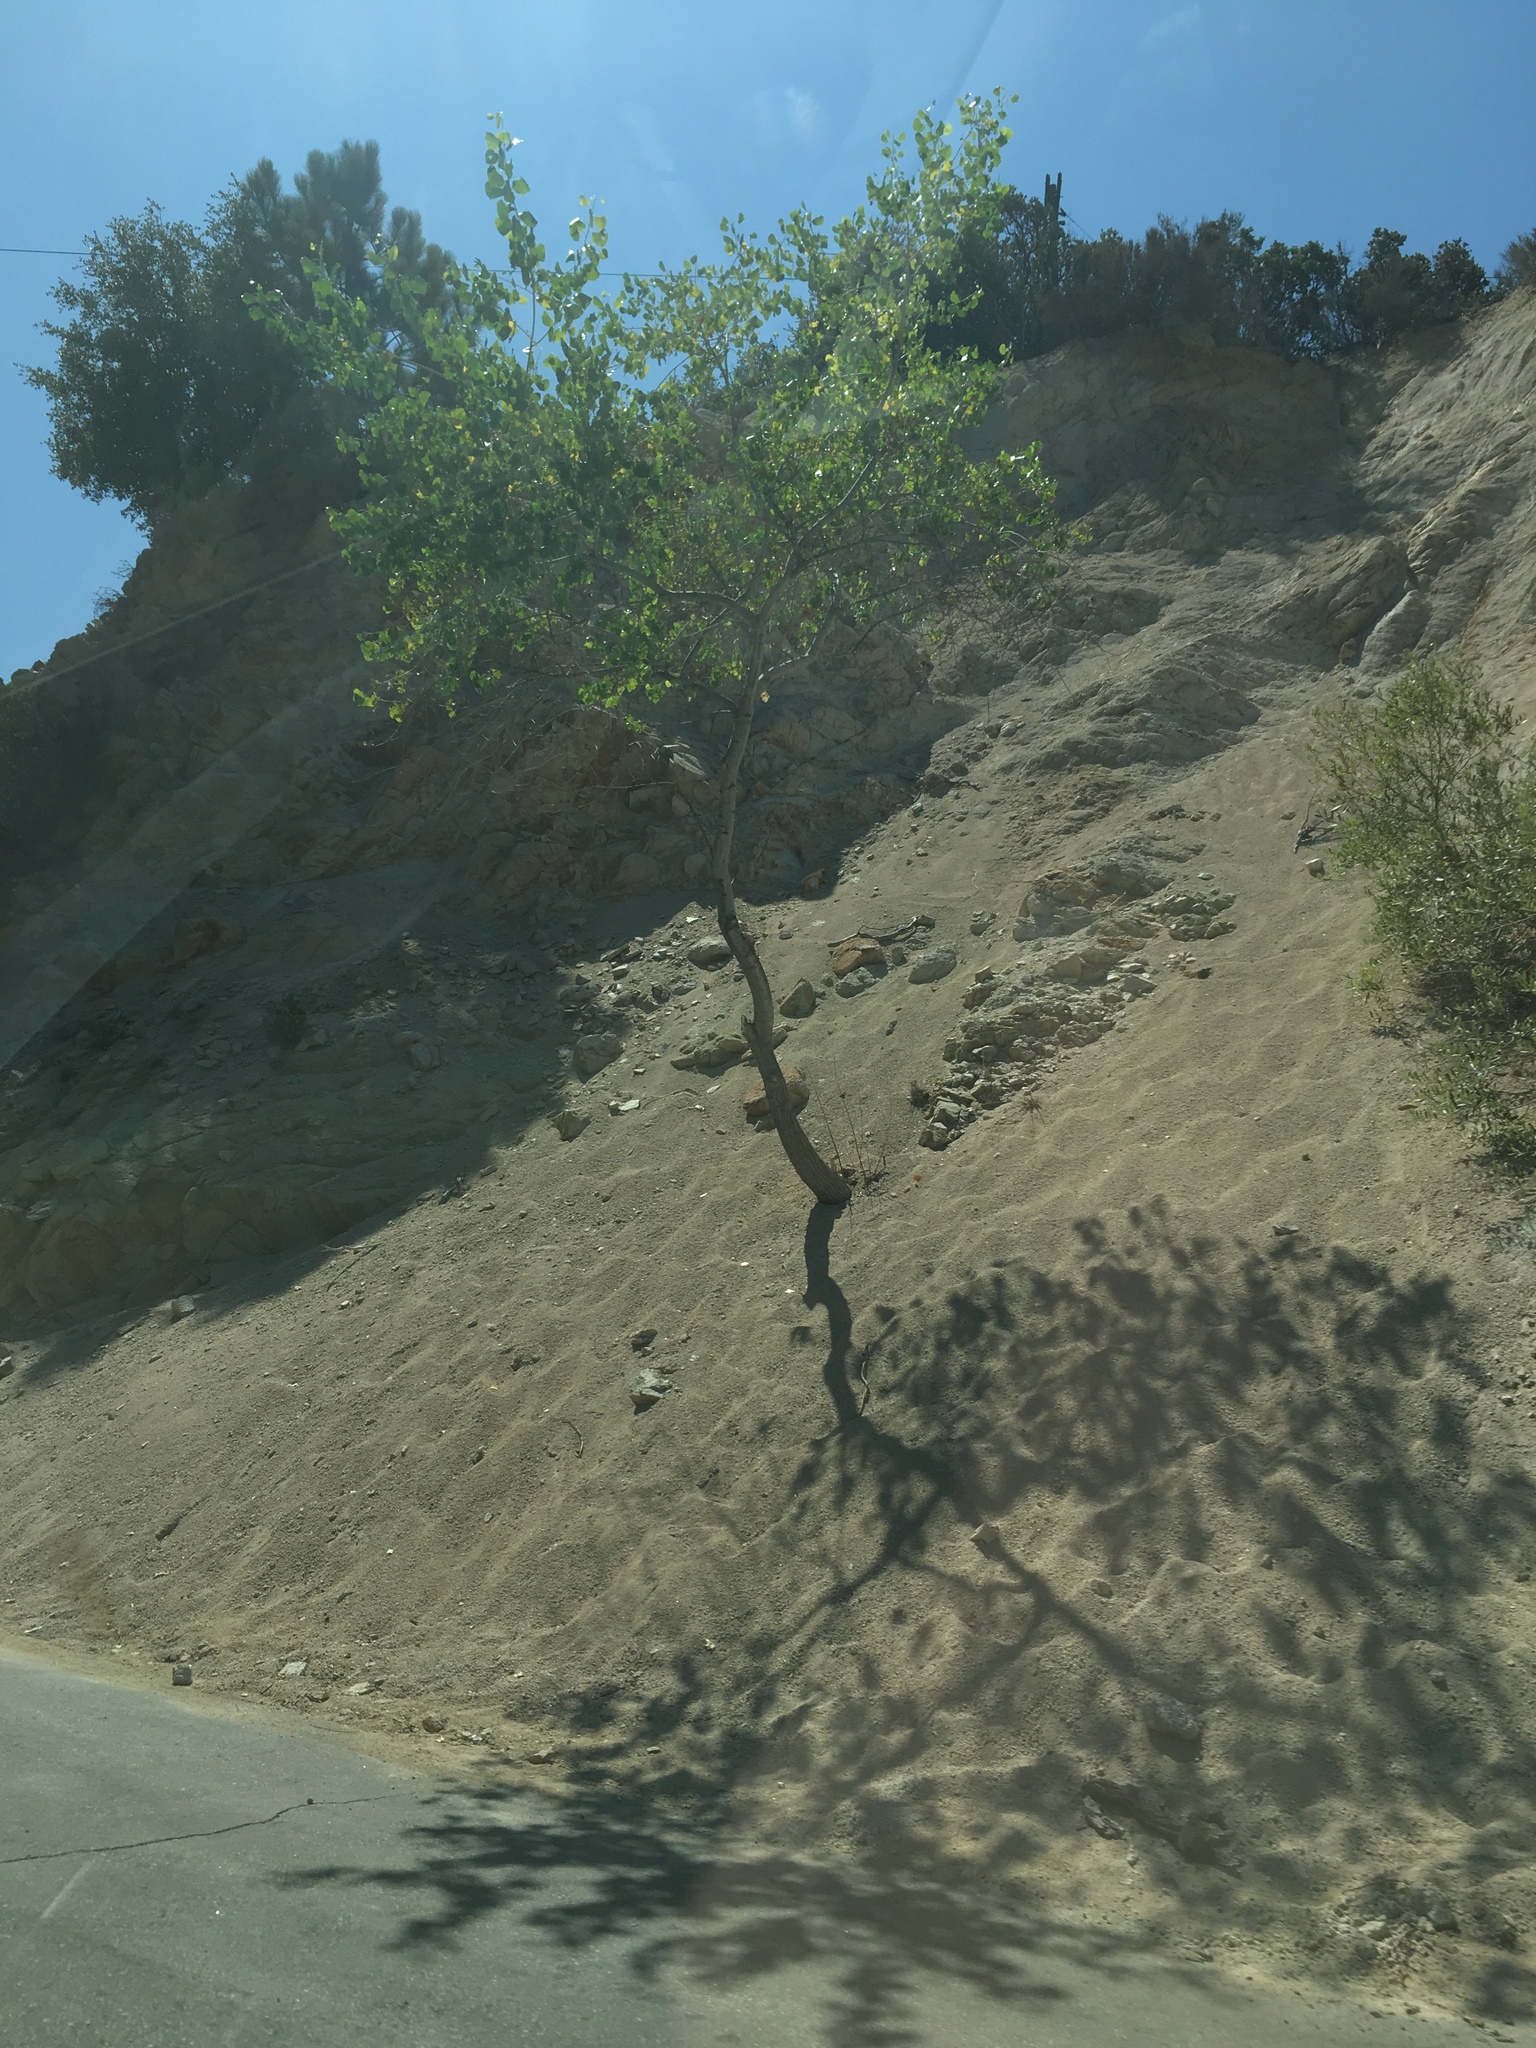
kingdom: Plantae
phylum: Tracheophyta
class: Magnoliopsida
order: Malpighiales
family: Salicaceae
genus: Populus
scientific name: Populus fremontii
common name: Fremont's cottonwood
